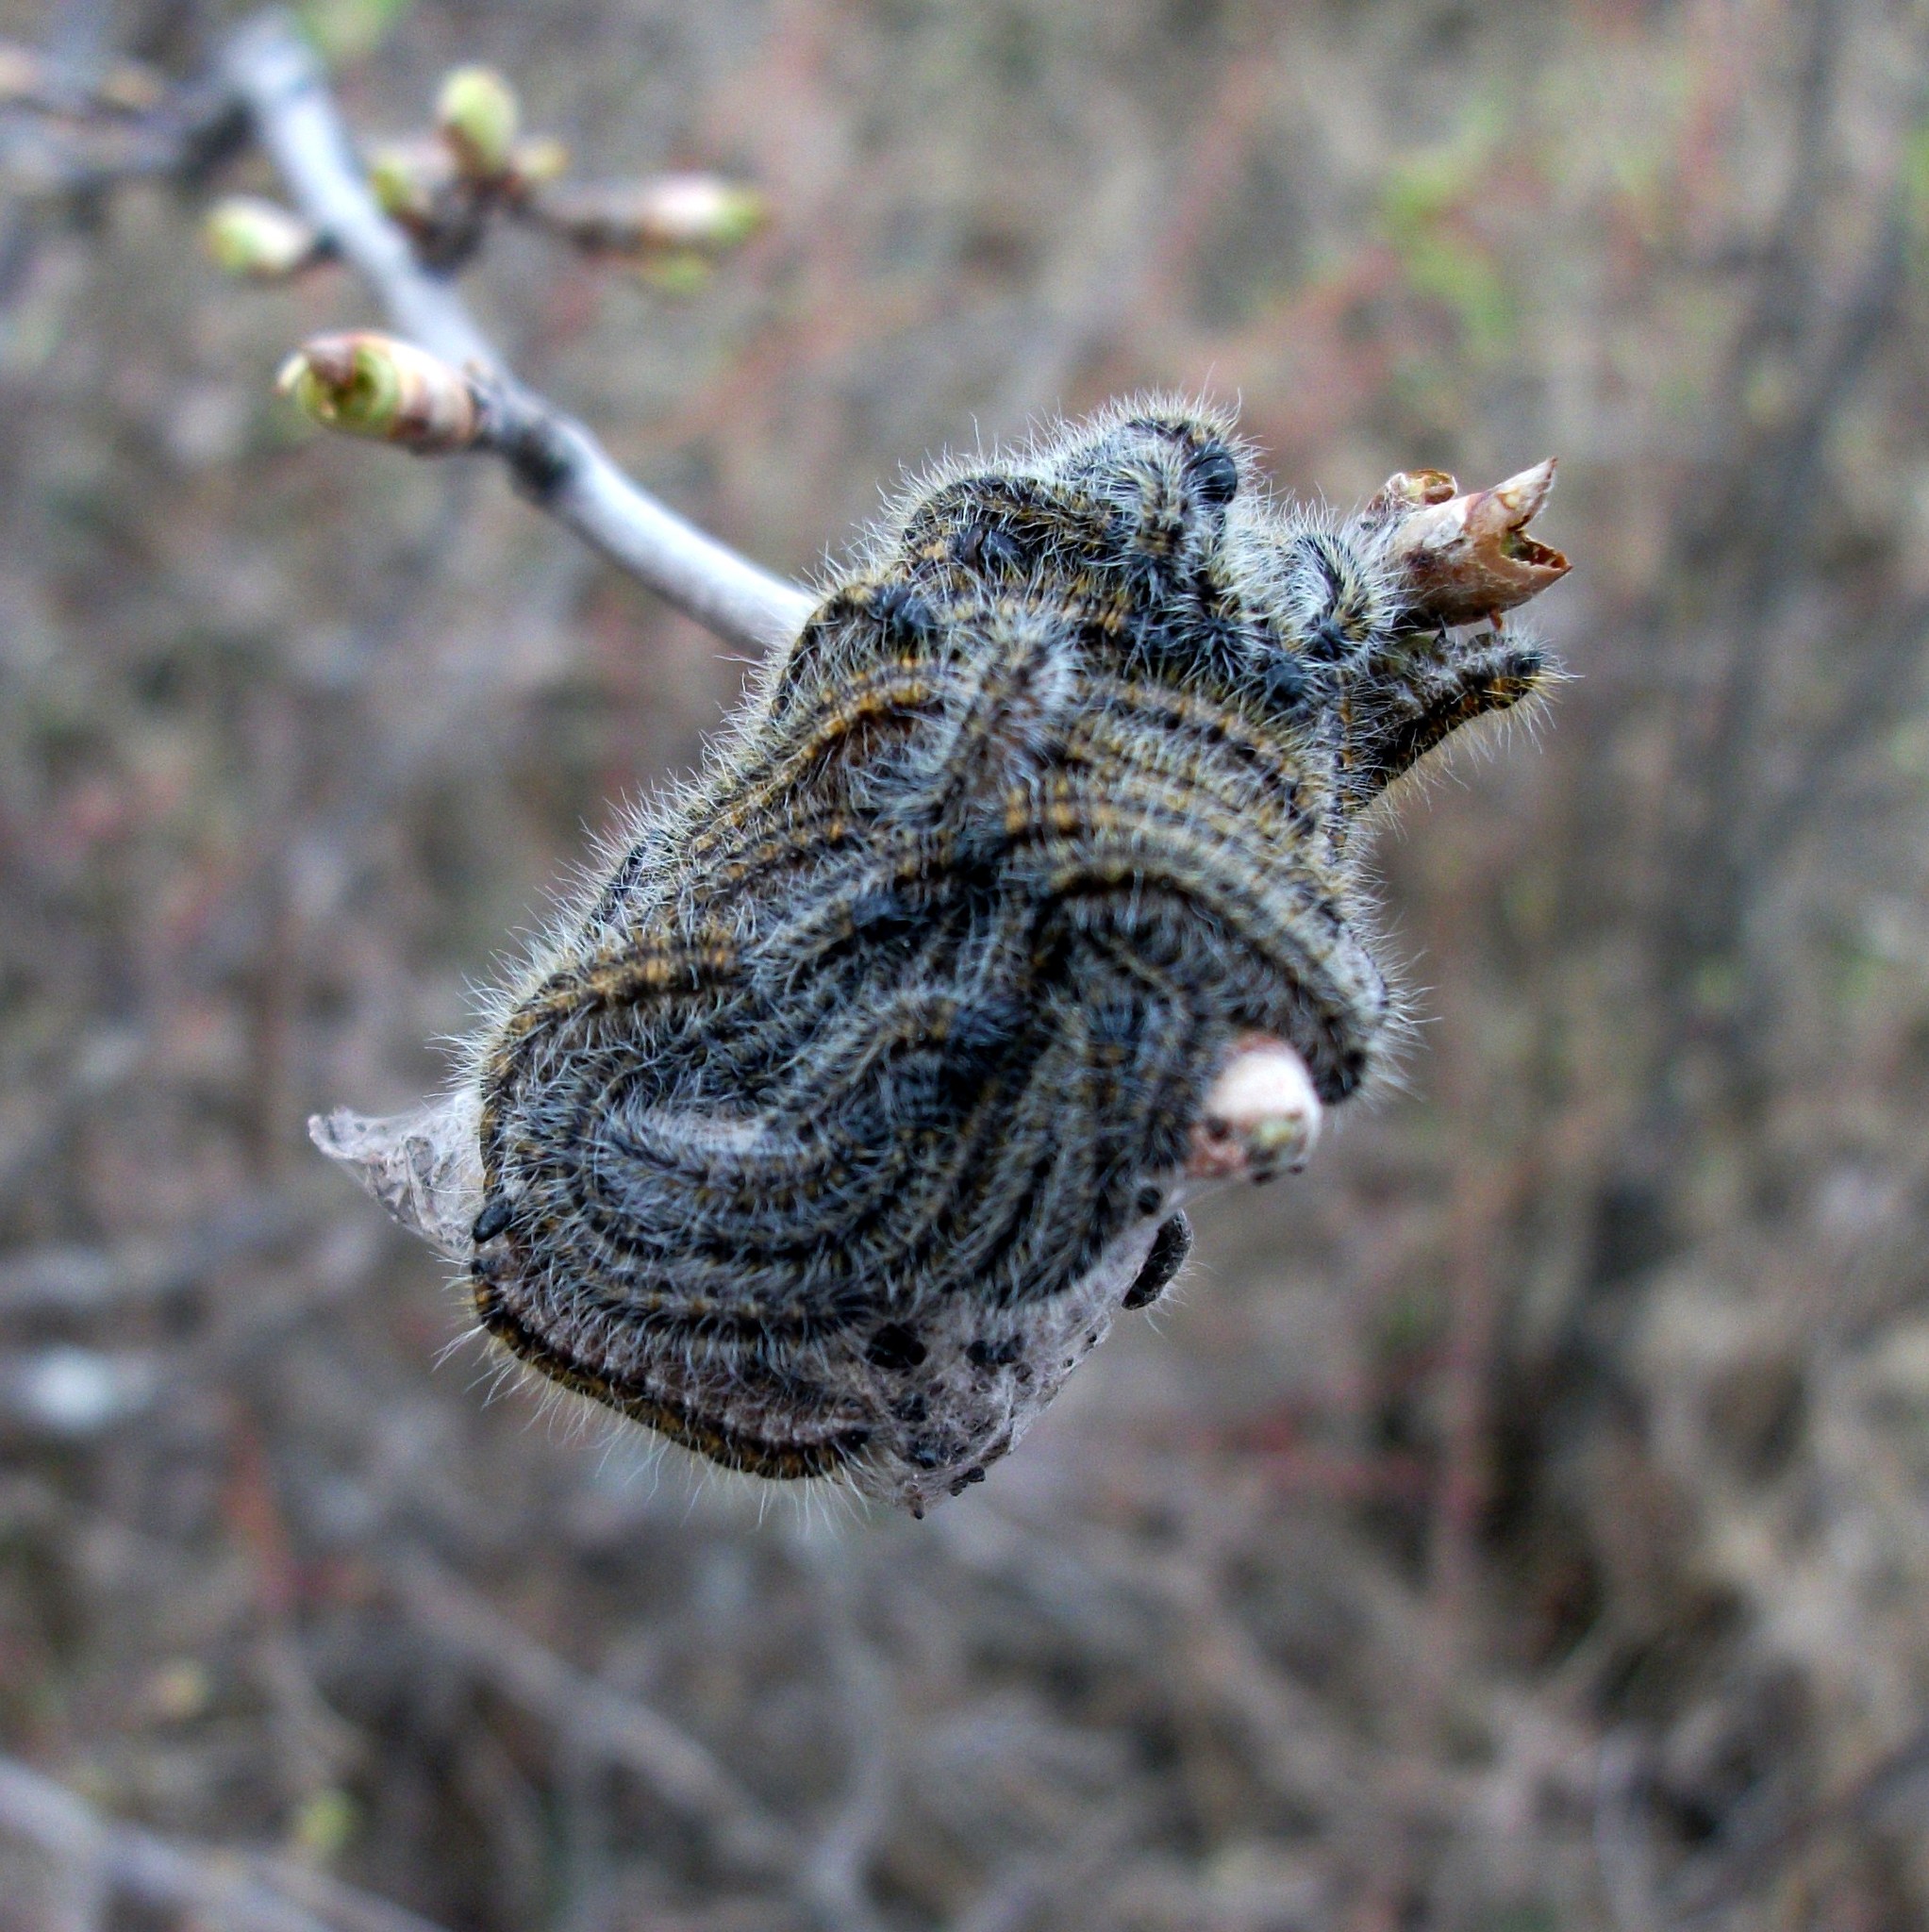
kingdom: Animalia
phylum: Arthropoda
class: Insecta
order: Lepidoptera
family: Pieridae
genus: Aporia
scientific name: Aporia crataegi
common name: Black-veined white
